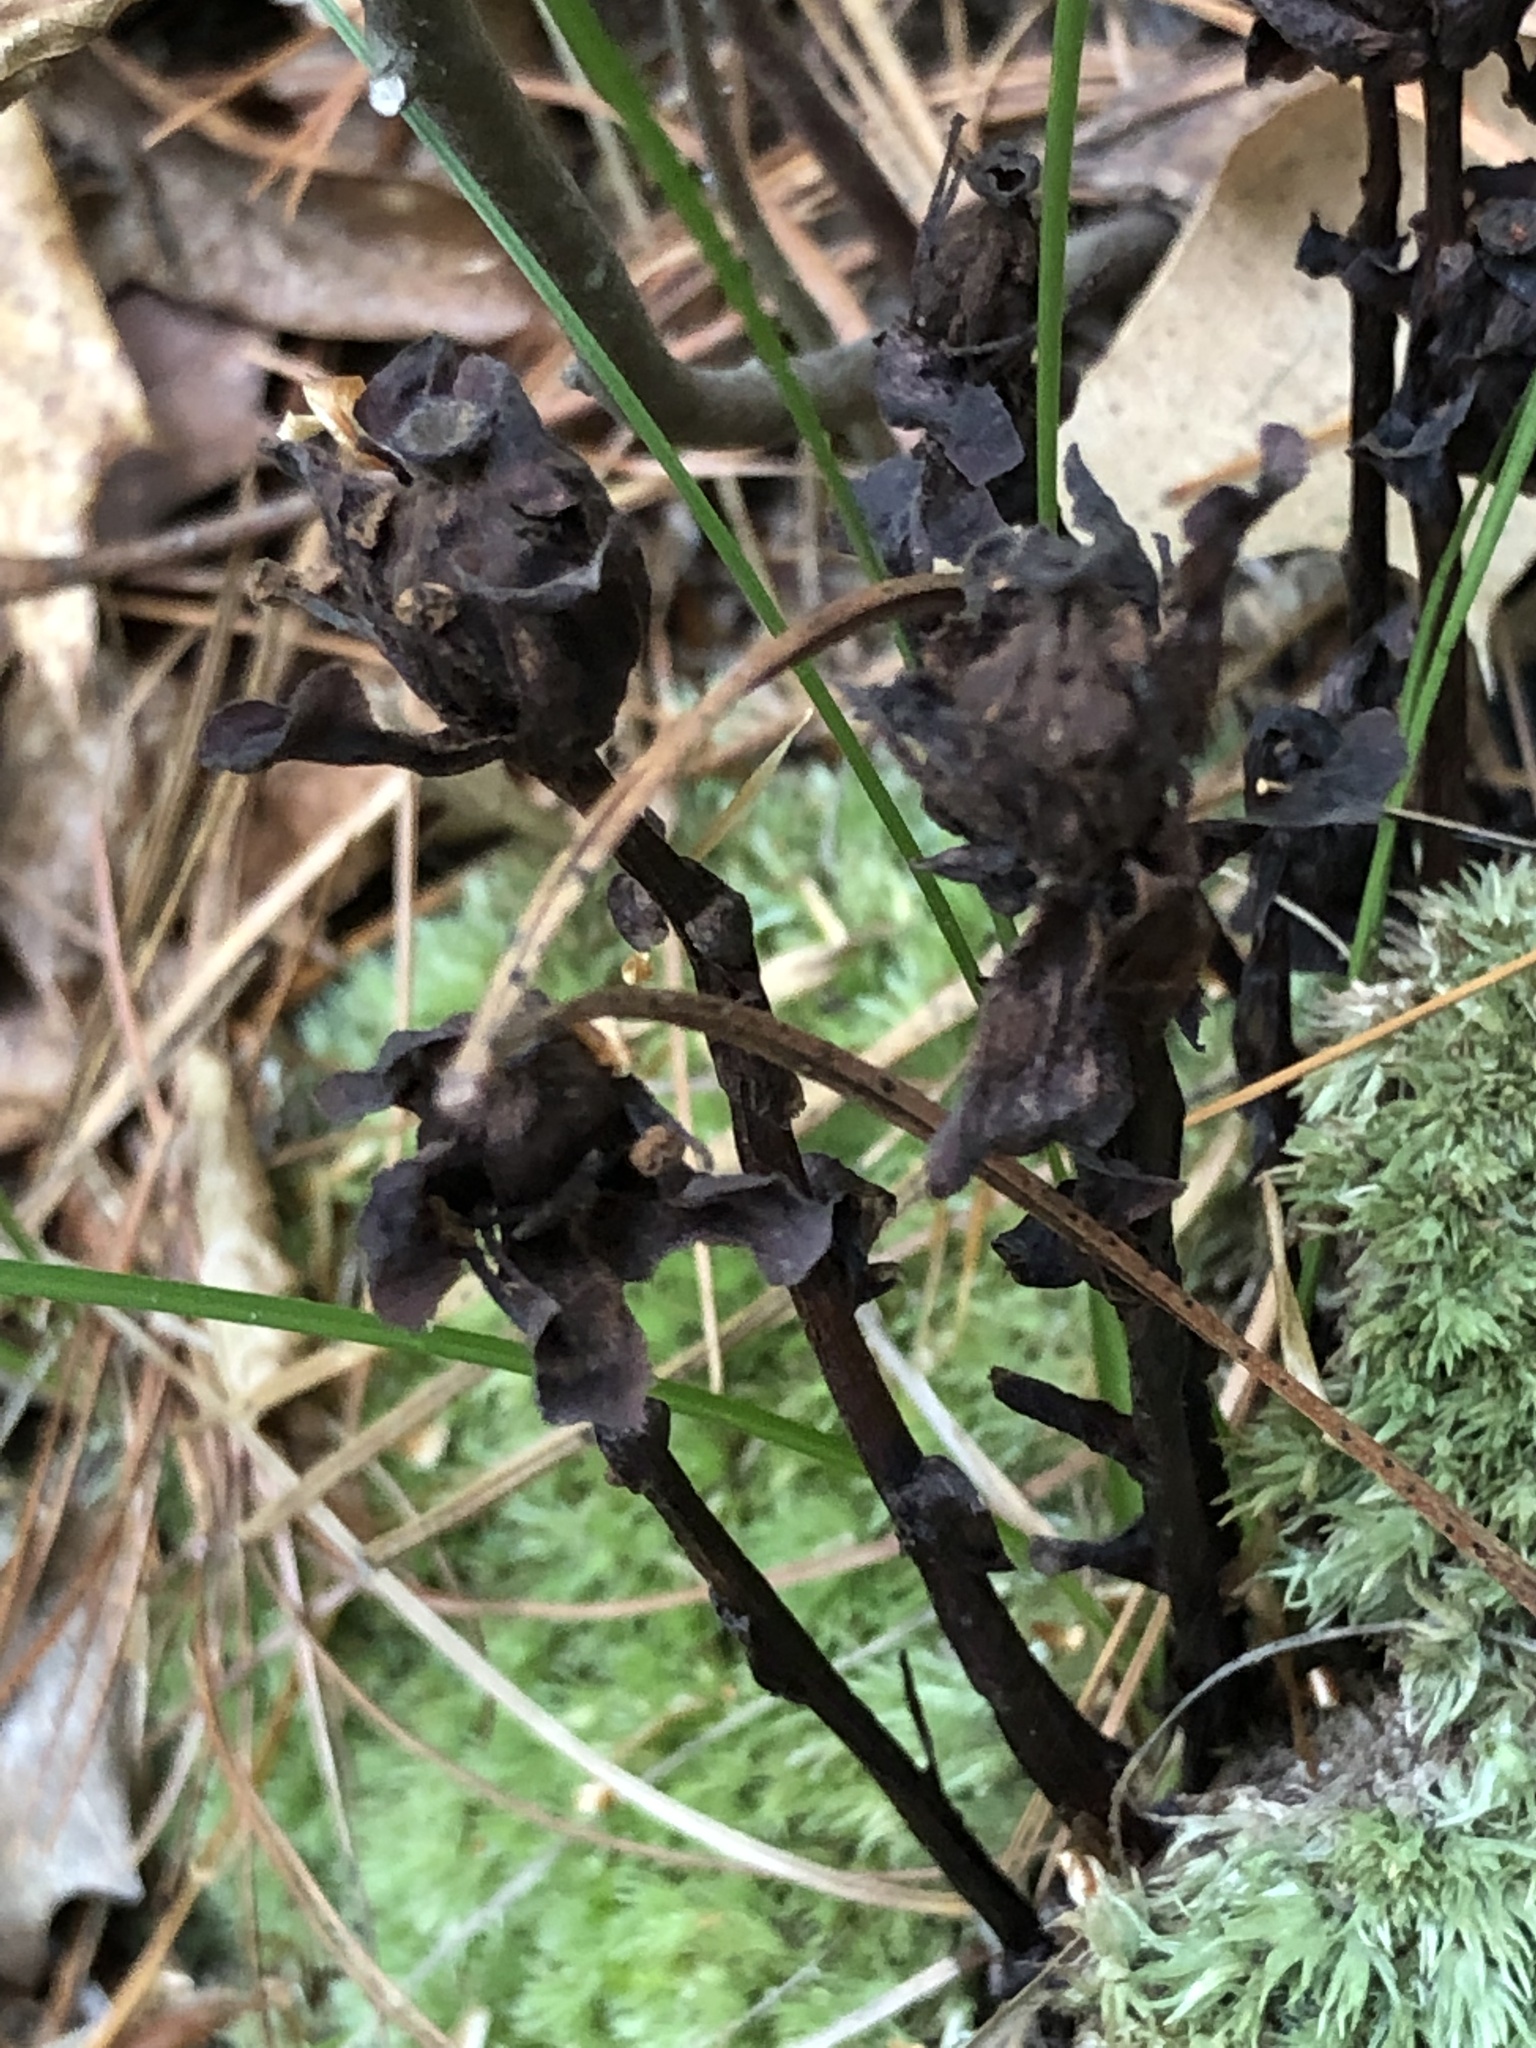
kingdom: Plantae
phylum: Tracheophyta
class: Magnoliopsida
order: Ericales
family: Ericaceae
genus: Monotropa
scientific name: Monotropa uniflora
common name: Convulsion root
